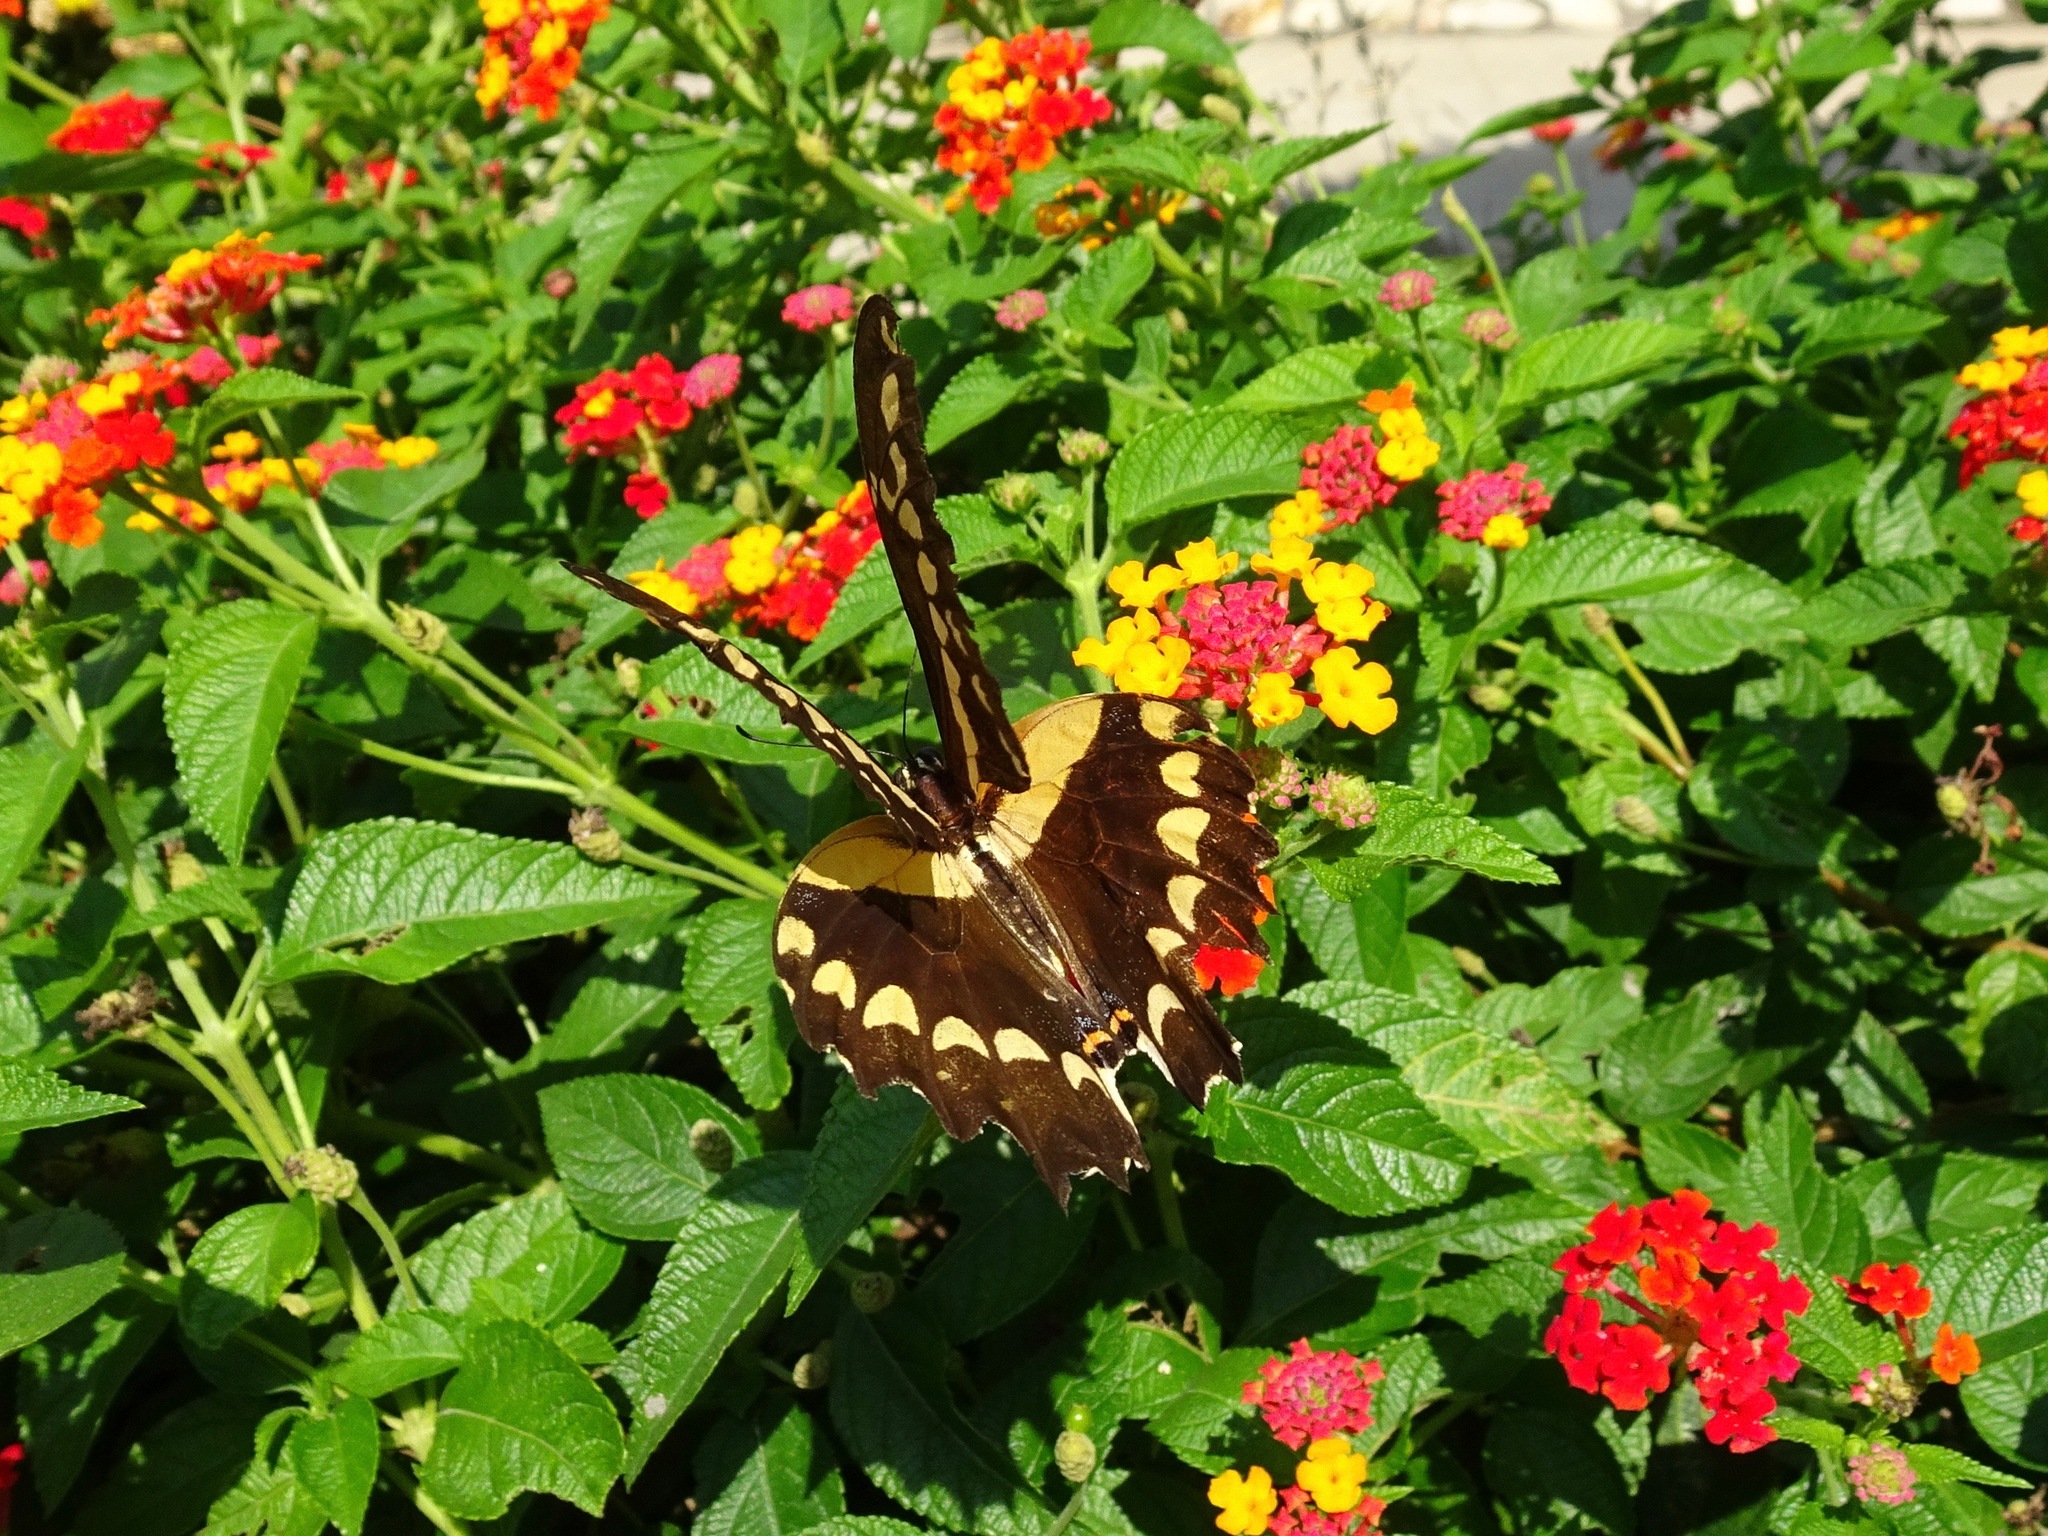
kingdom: Animalia
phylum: Arthropoda
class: Insecta
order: Lepidoptera
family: Papilionidae
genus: Papilio
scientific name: Papilio rumiko
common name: Western giant swallowtail
